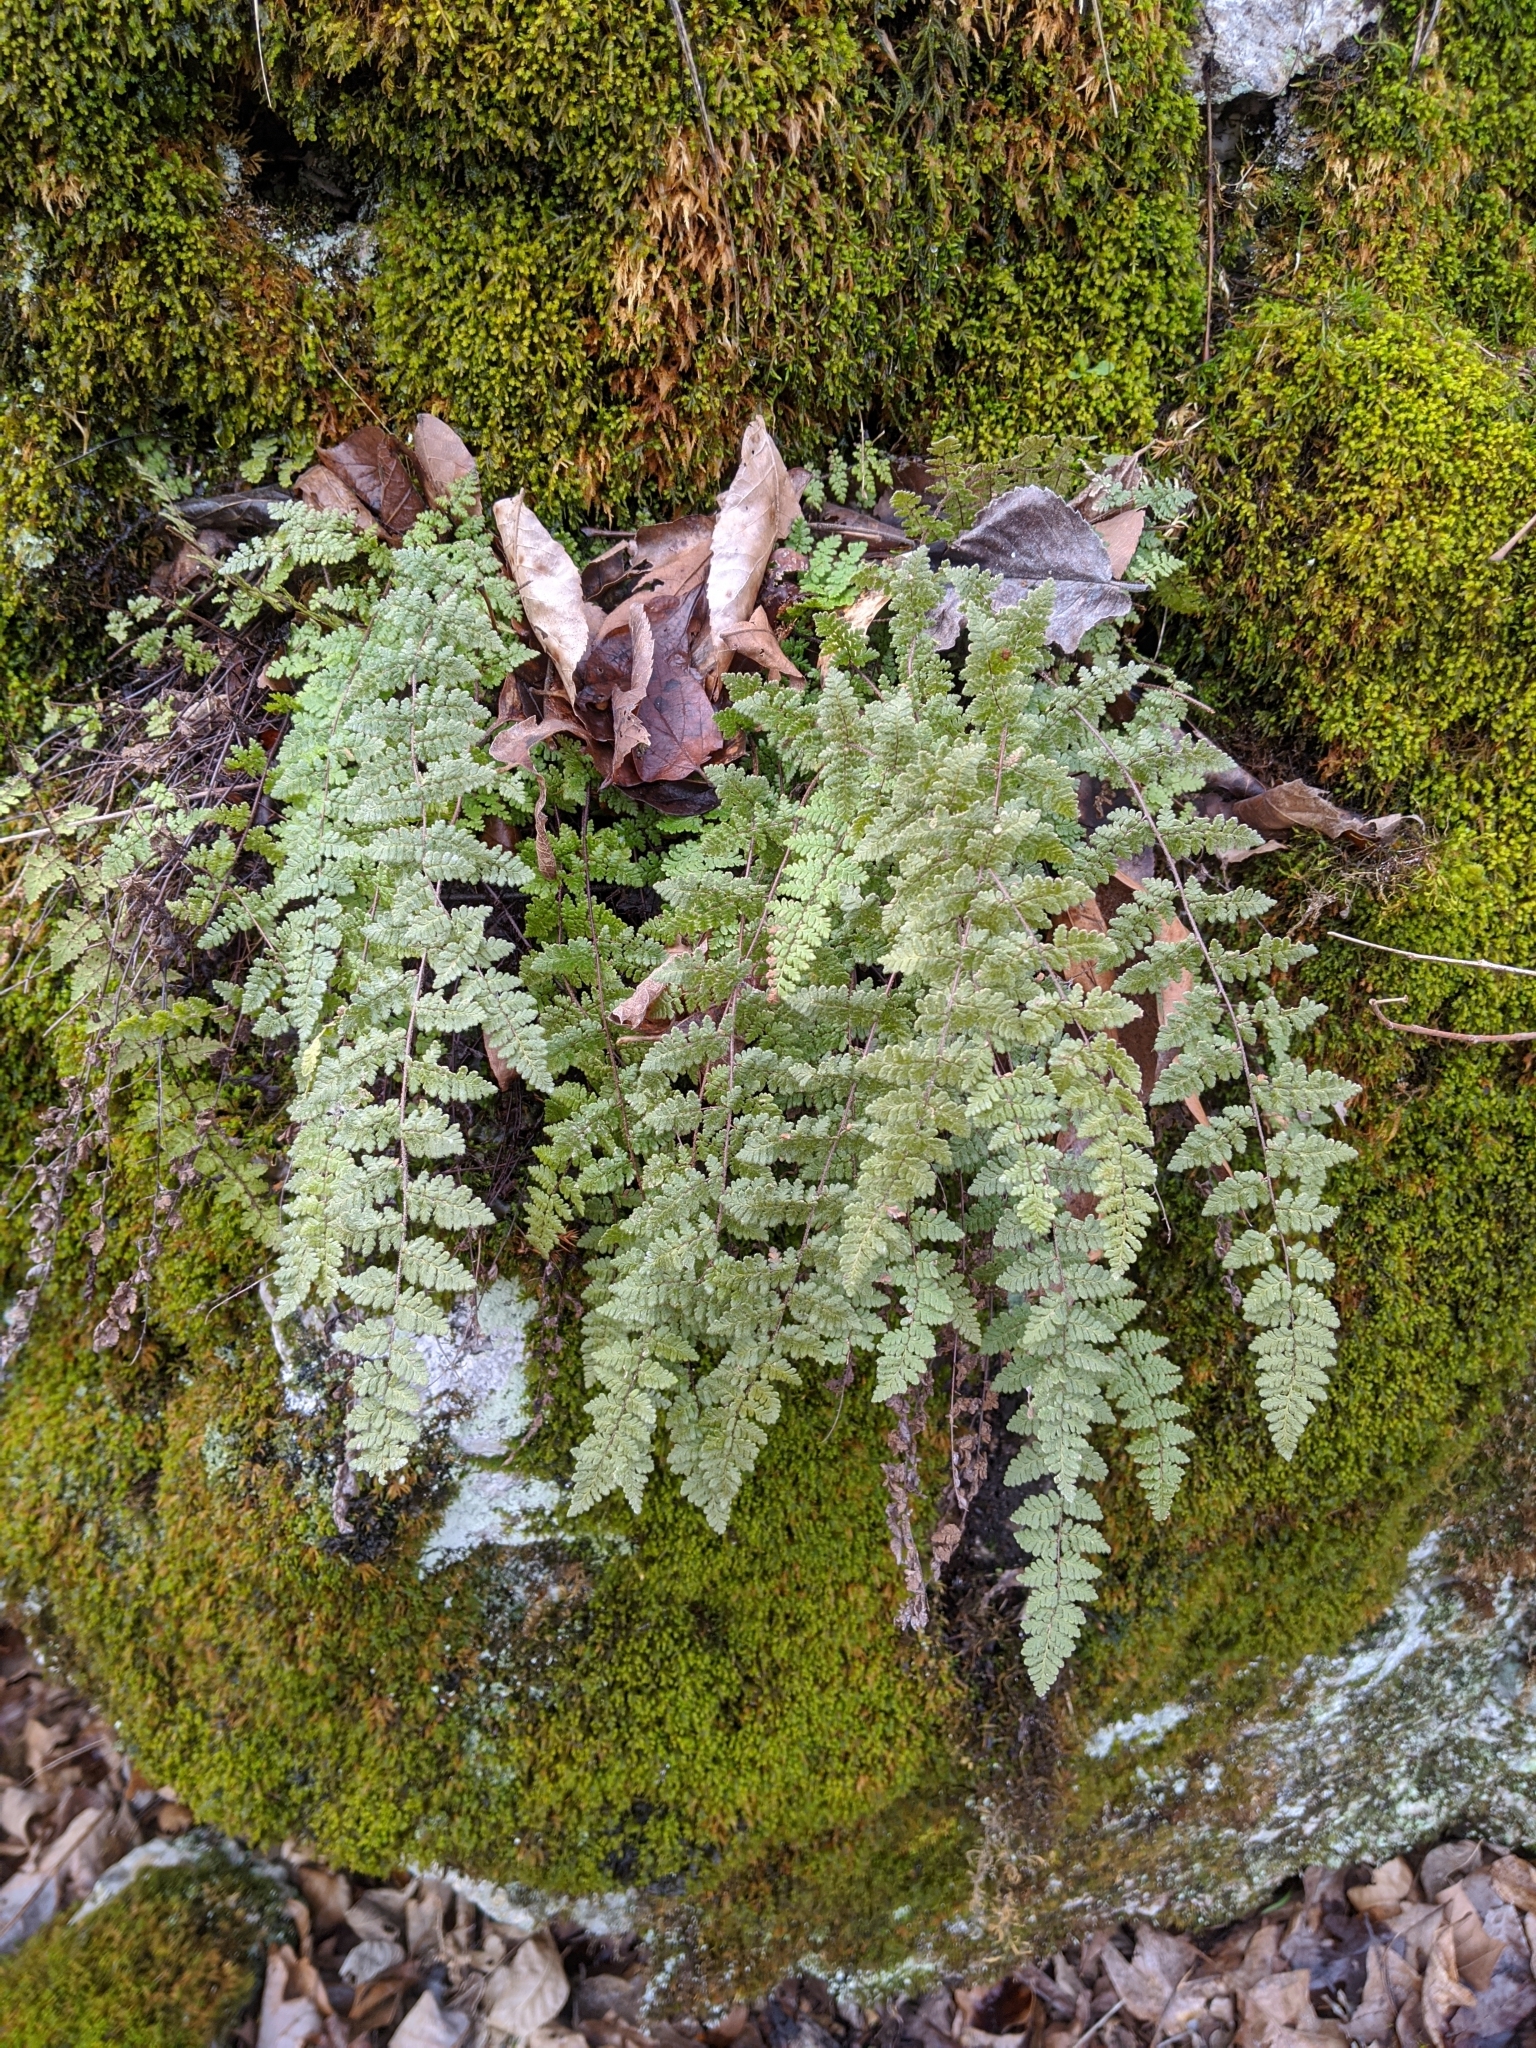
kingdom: Plantae
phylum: Tracheophyta
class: Polypodiopsida
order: Polypodiales
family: Pteridaceae
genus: Myriopteris
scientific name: Myriopteris lanosa
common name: Hairy lip fern
